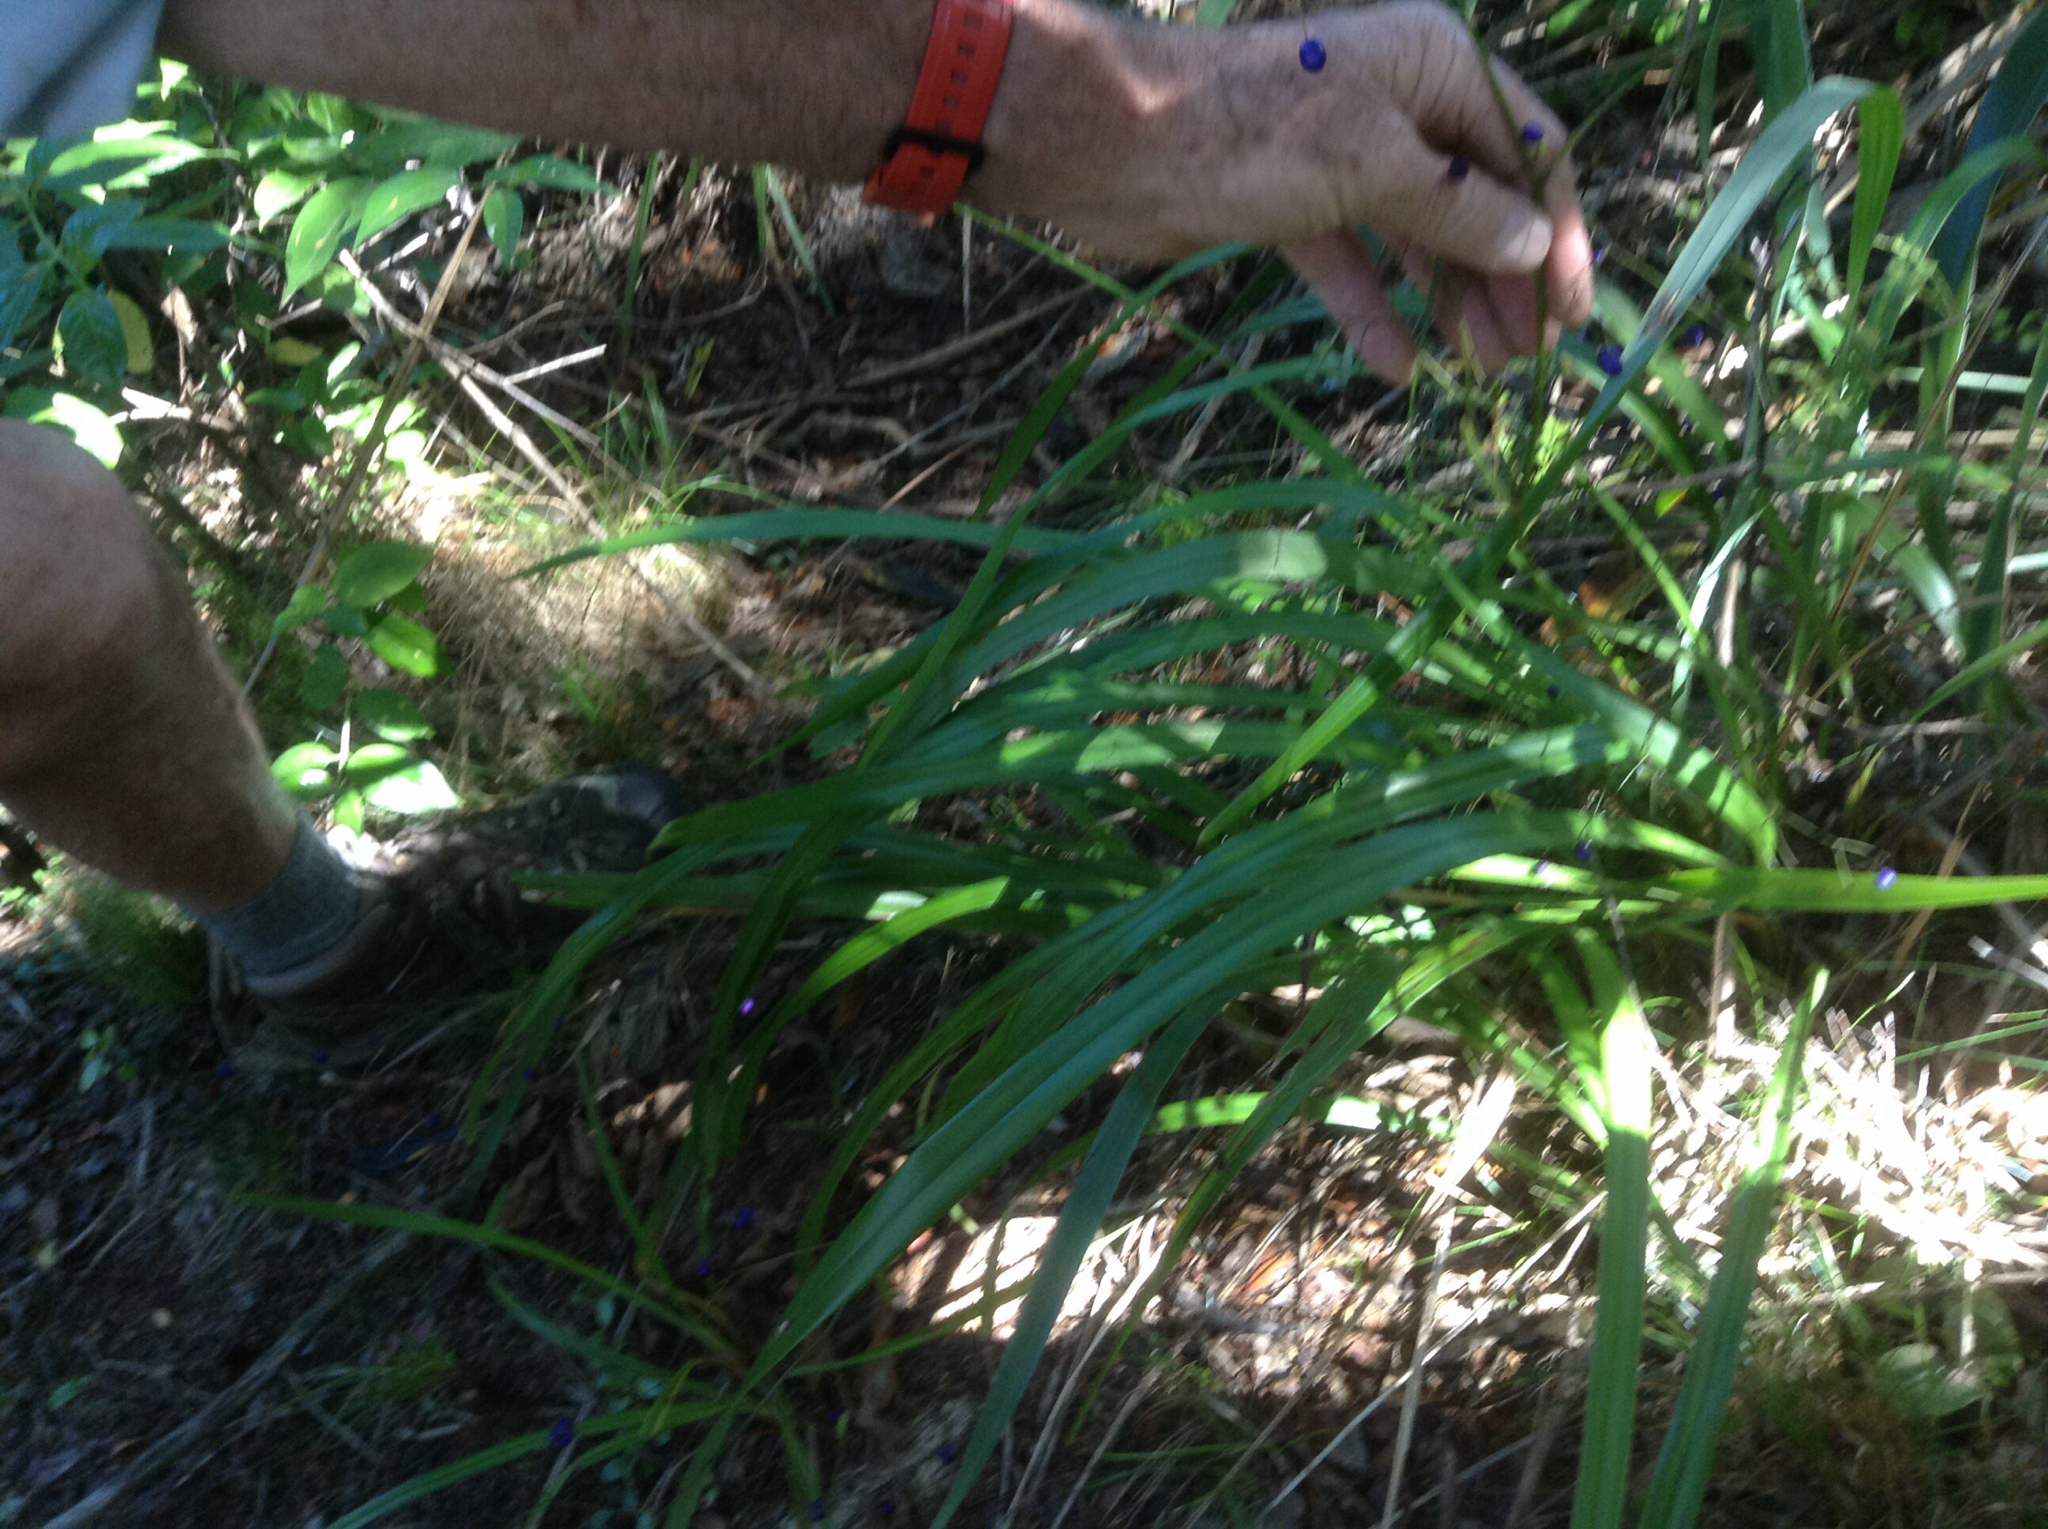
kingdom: Plantae
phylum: Tracheophyta
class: Liliopsida
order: Asparagales
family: Asphodelaceae
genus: Dianella
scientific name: Dianella nigra
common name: New zealand-blueberry
